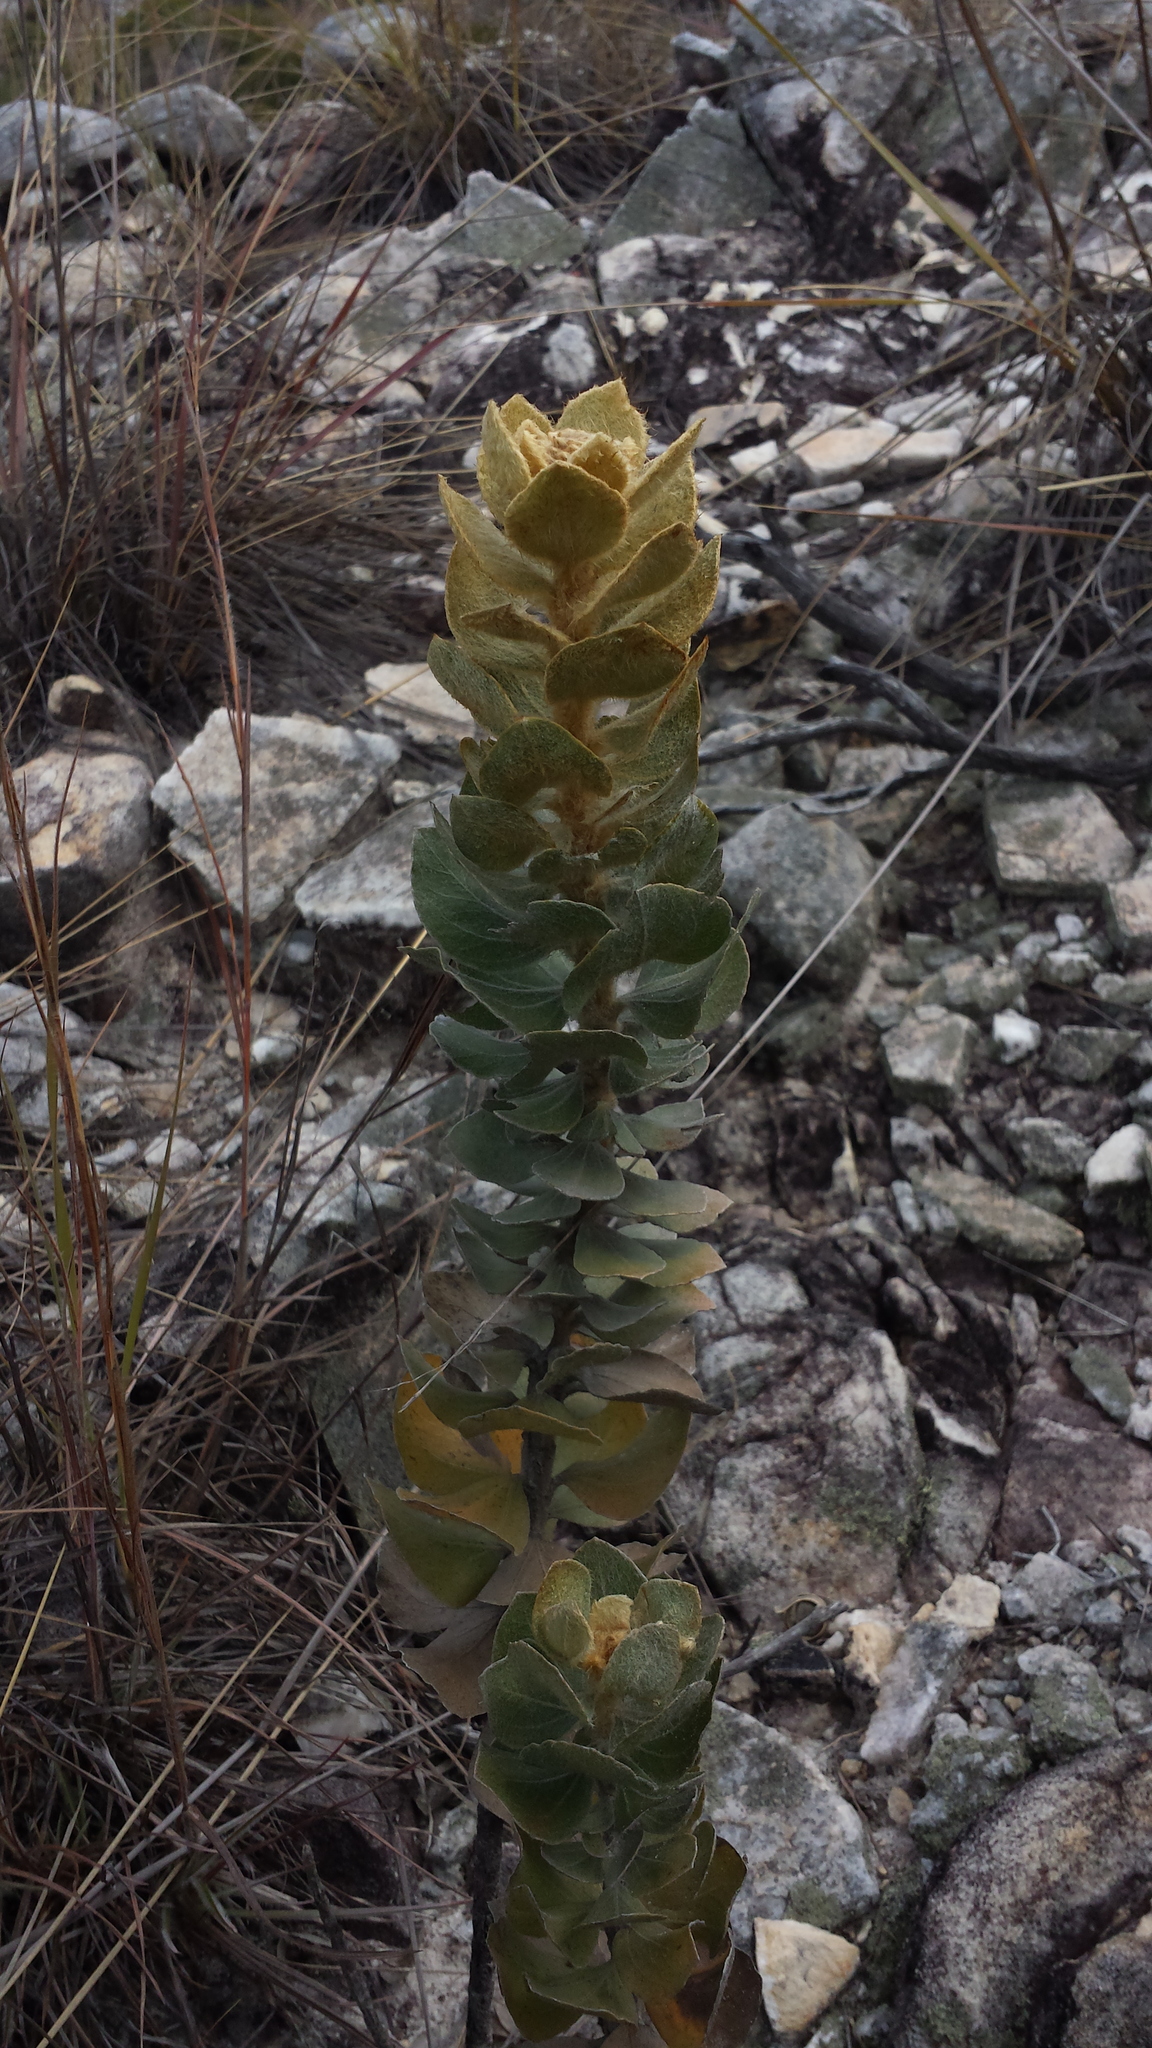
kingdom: Plantae
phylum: Tracheophyta
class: Magnoliopsida
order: Asterales
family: Asteraceae
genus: Distephanus
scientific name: Distephanus eriophyllus
